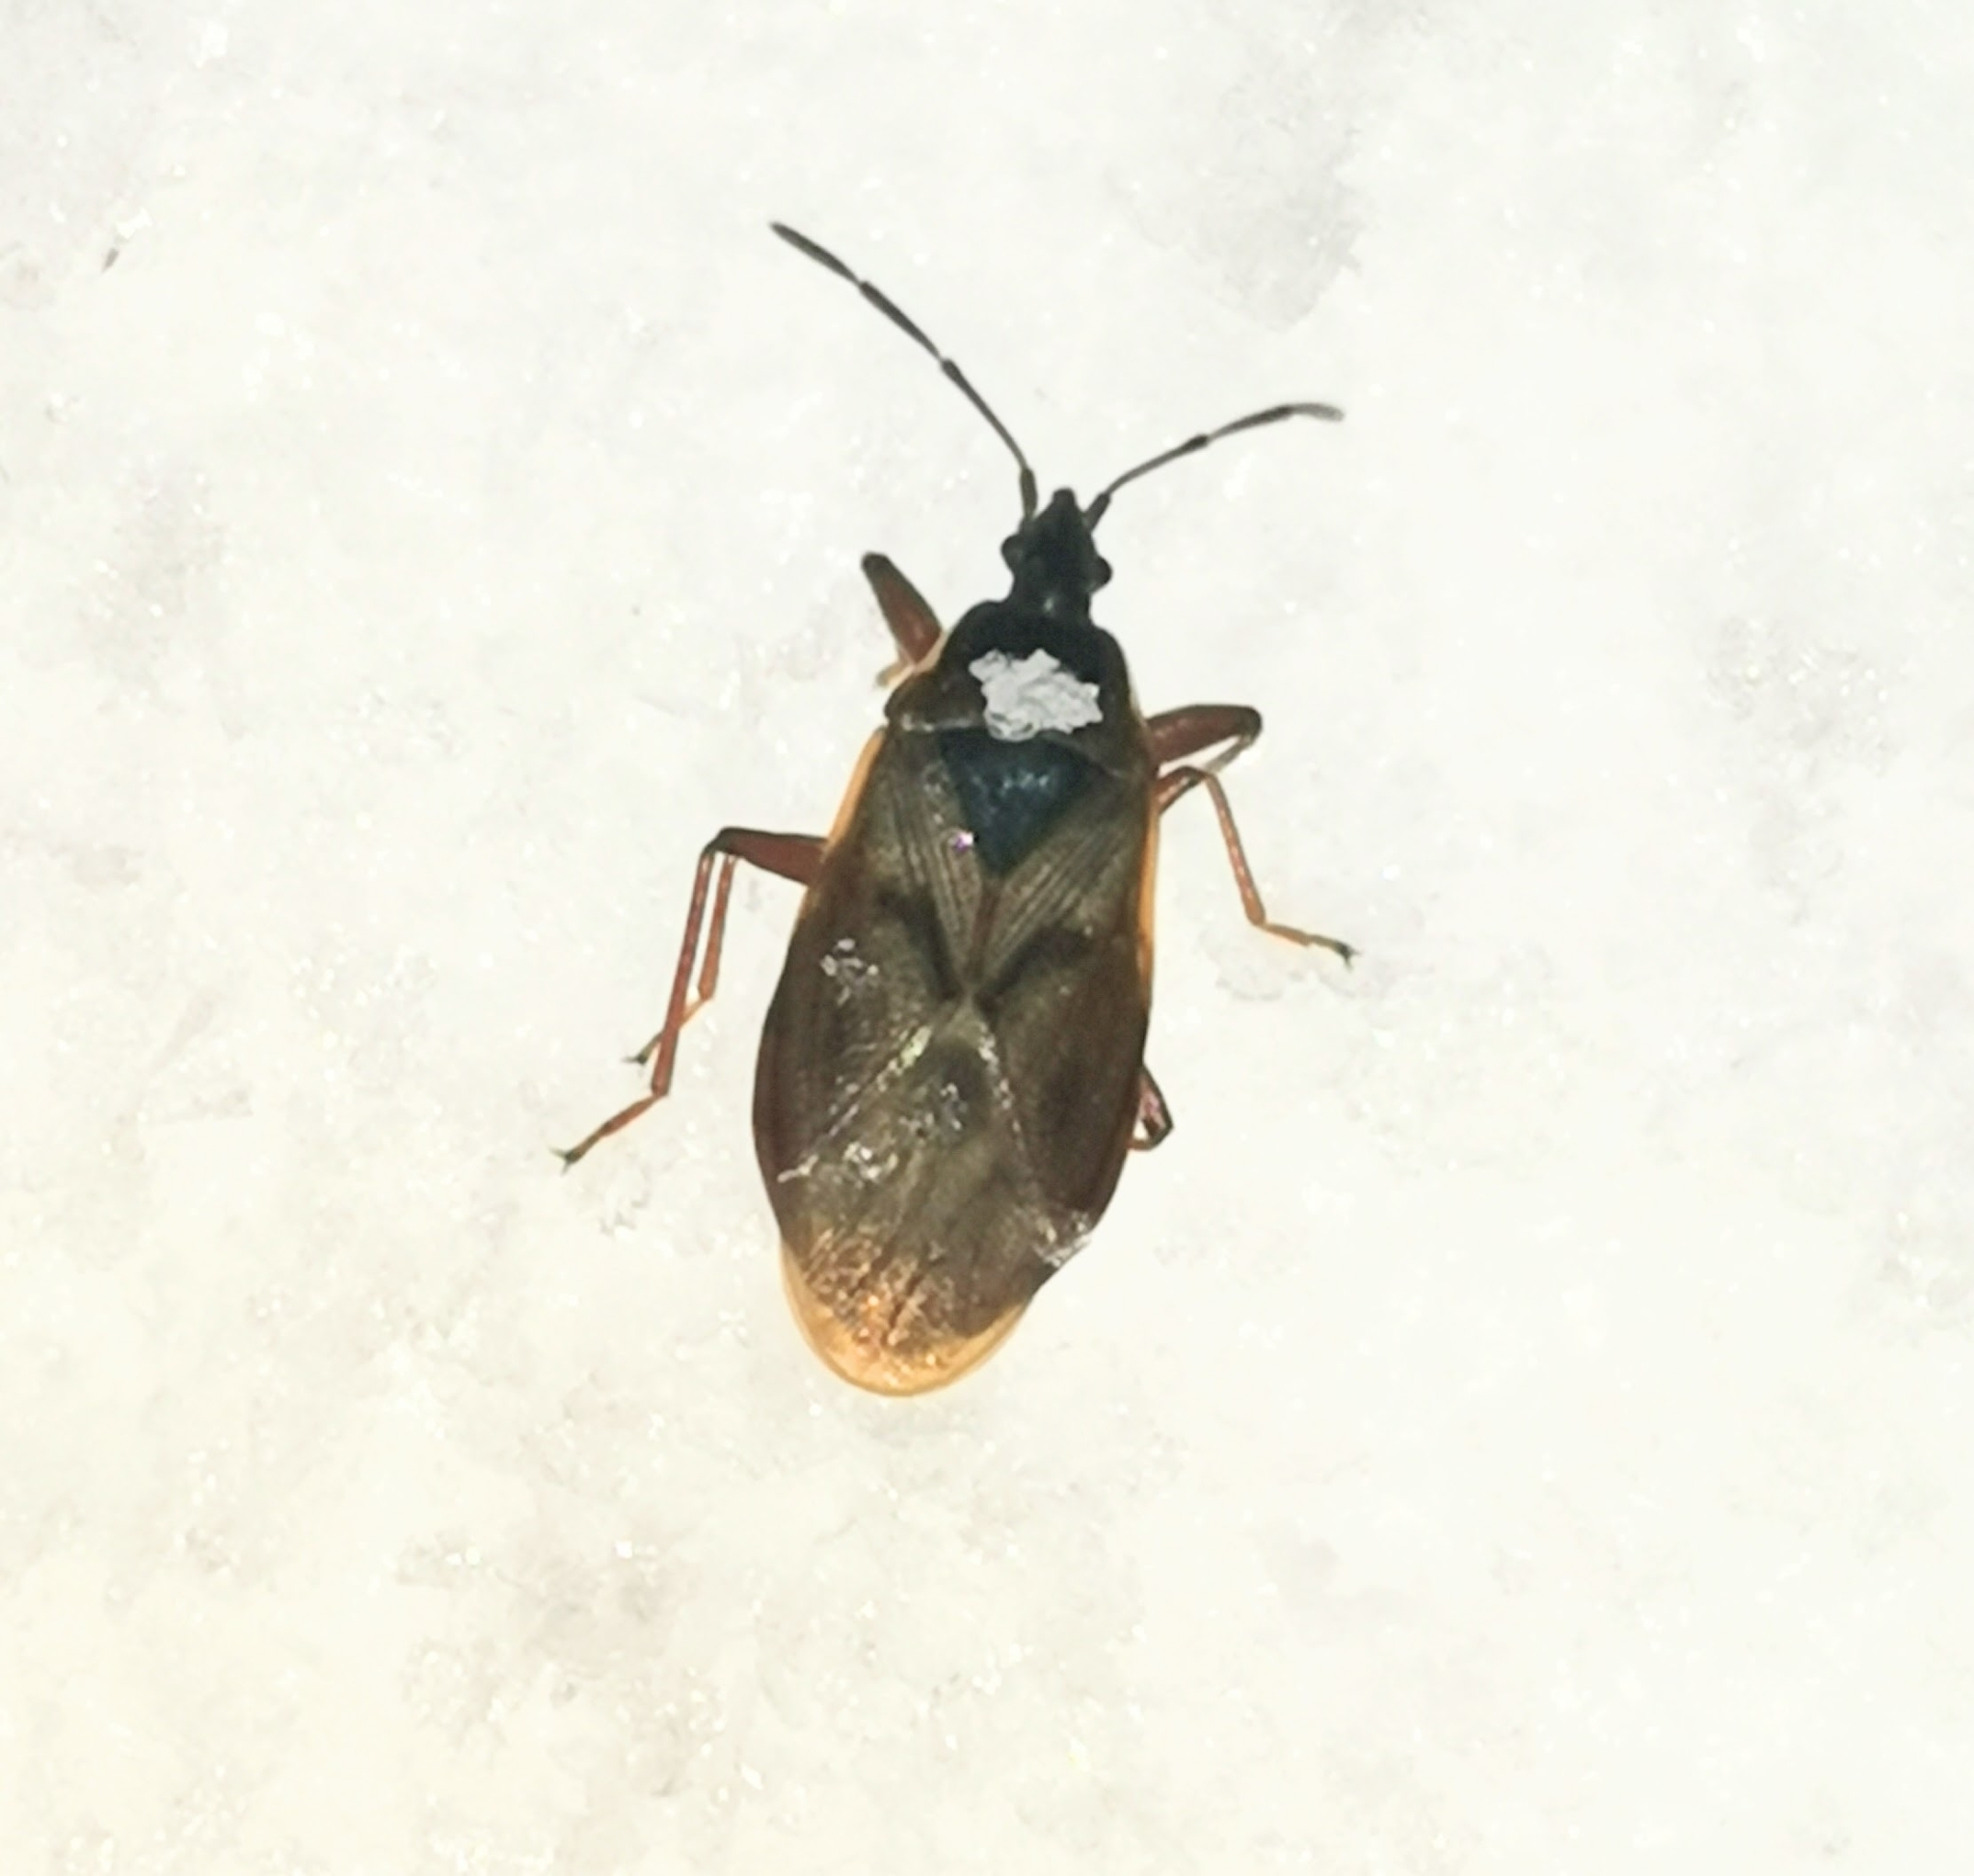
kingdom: Animalia
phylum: Arthropoda
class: Insecta
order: Hemiptera
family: Rhyparochromidae
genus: Gastrodes
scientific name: Gastrodes abietum
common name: Spruce cone bug
